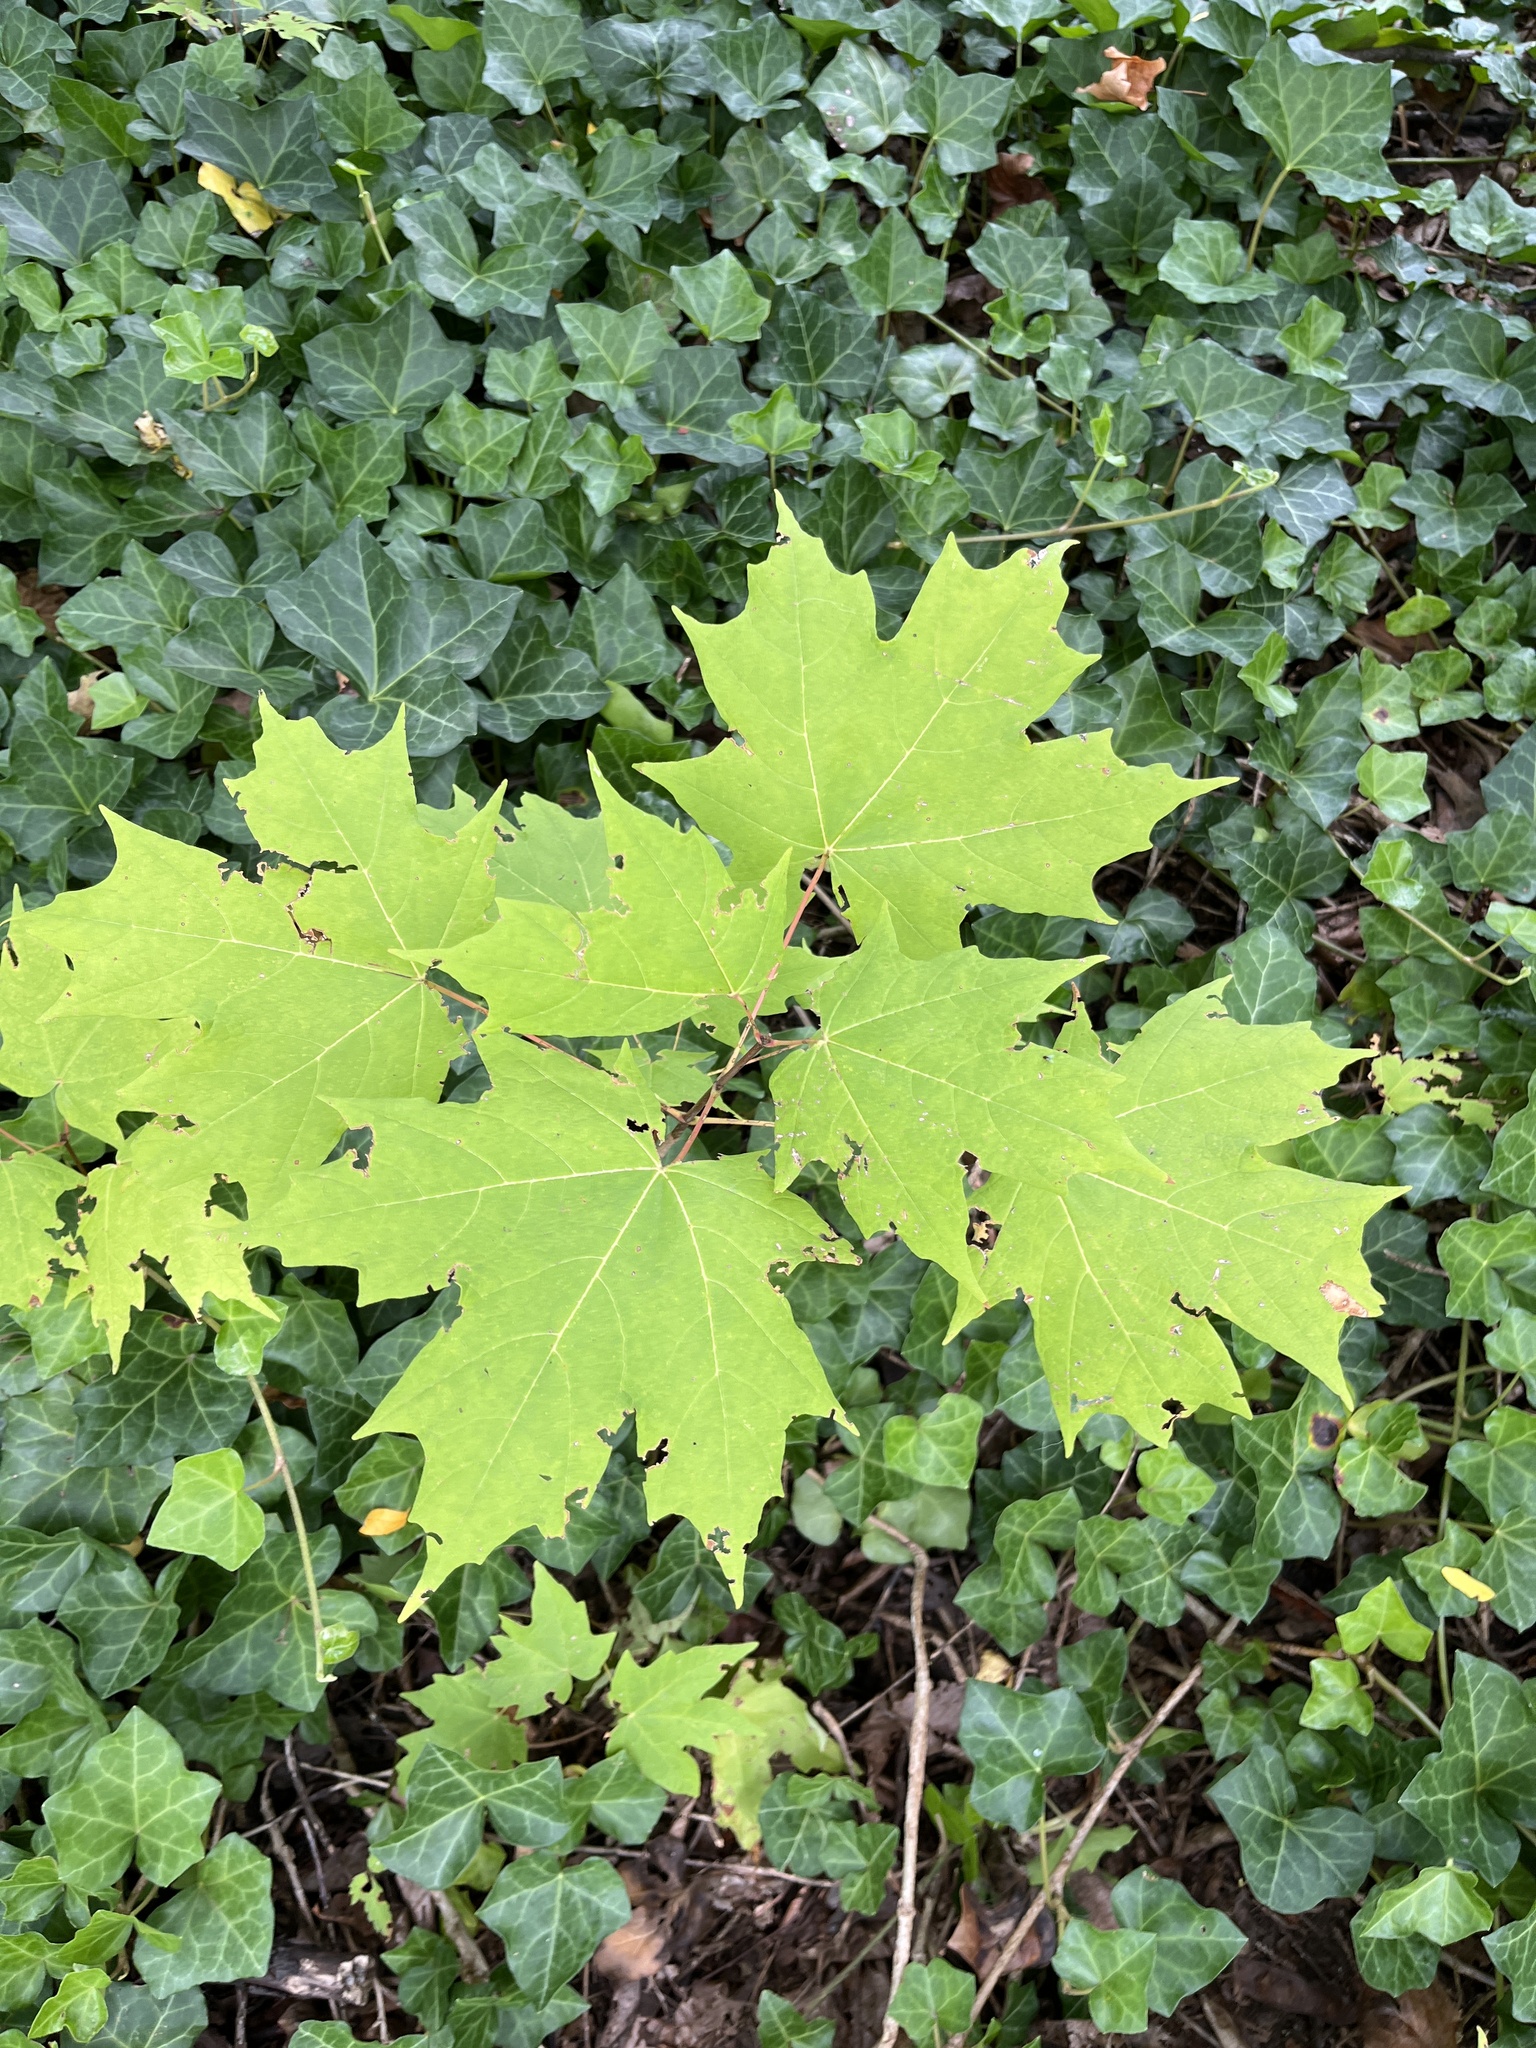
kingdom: Plantae
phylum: Tracheophyta
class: Magnoliopsida
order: Sapindales
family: Sapindaceae
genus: Acer
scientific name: Acer saccharum
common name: Sugar maple
